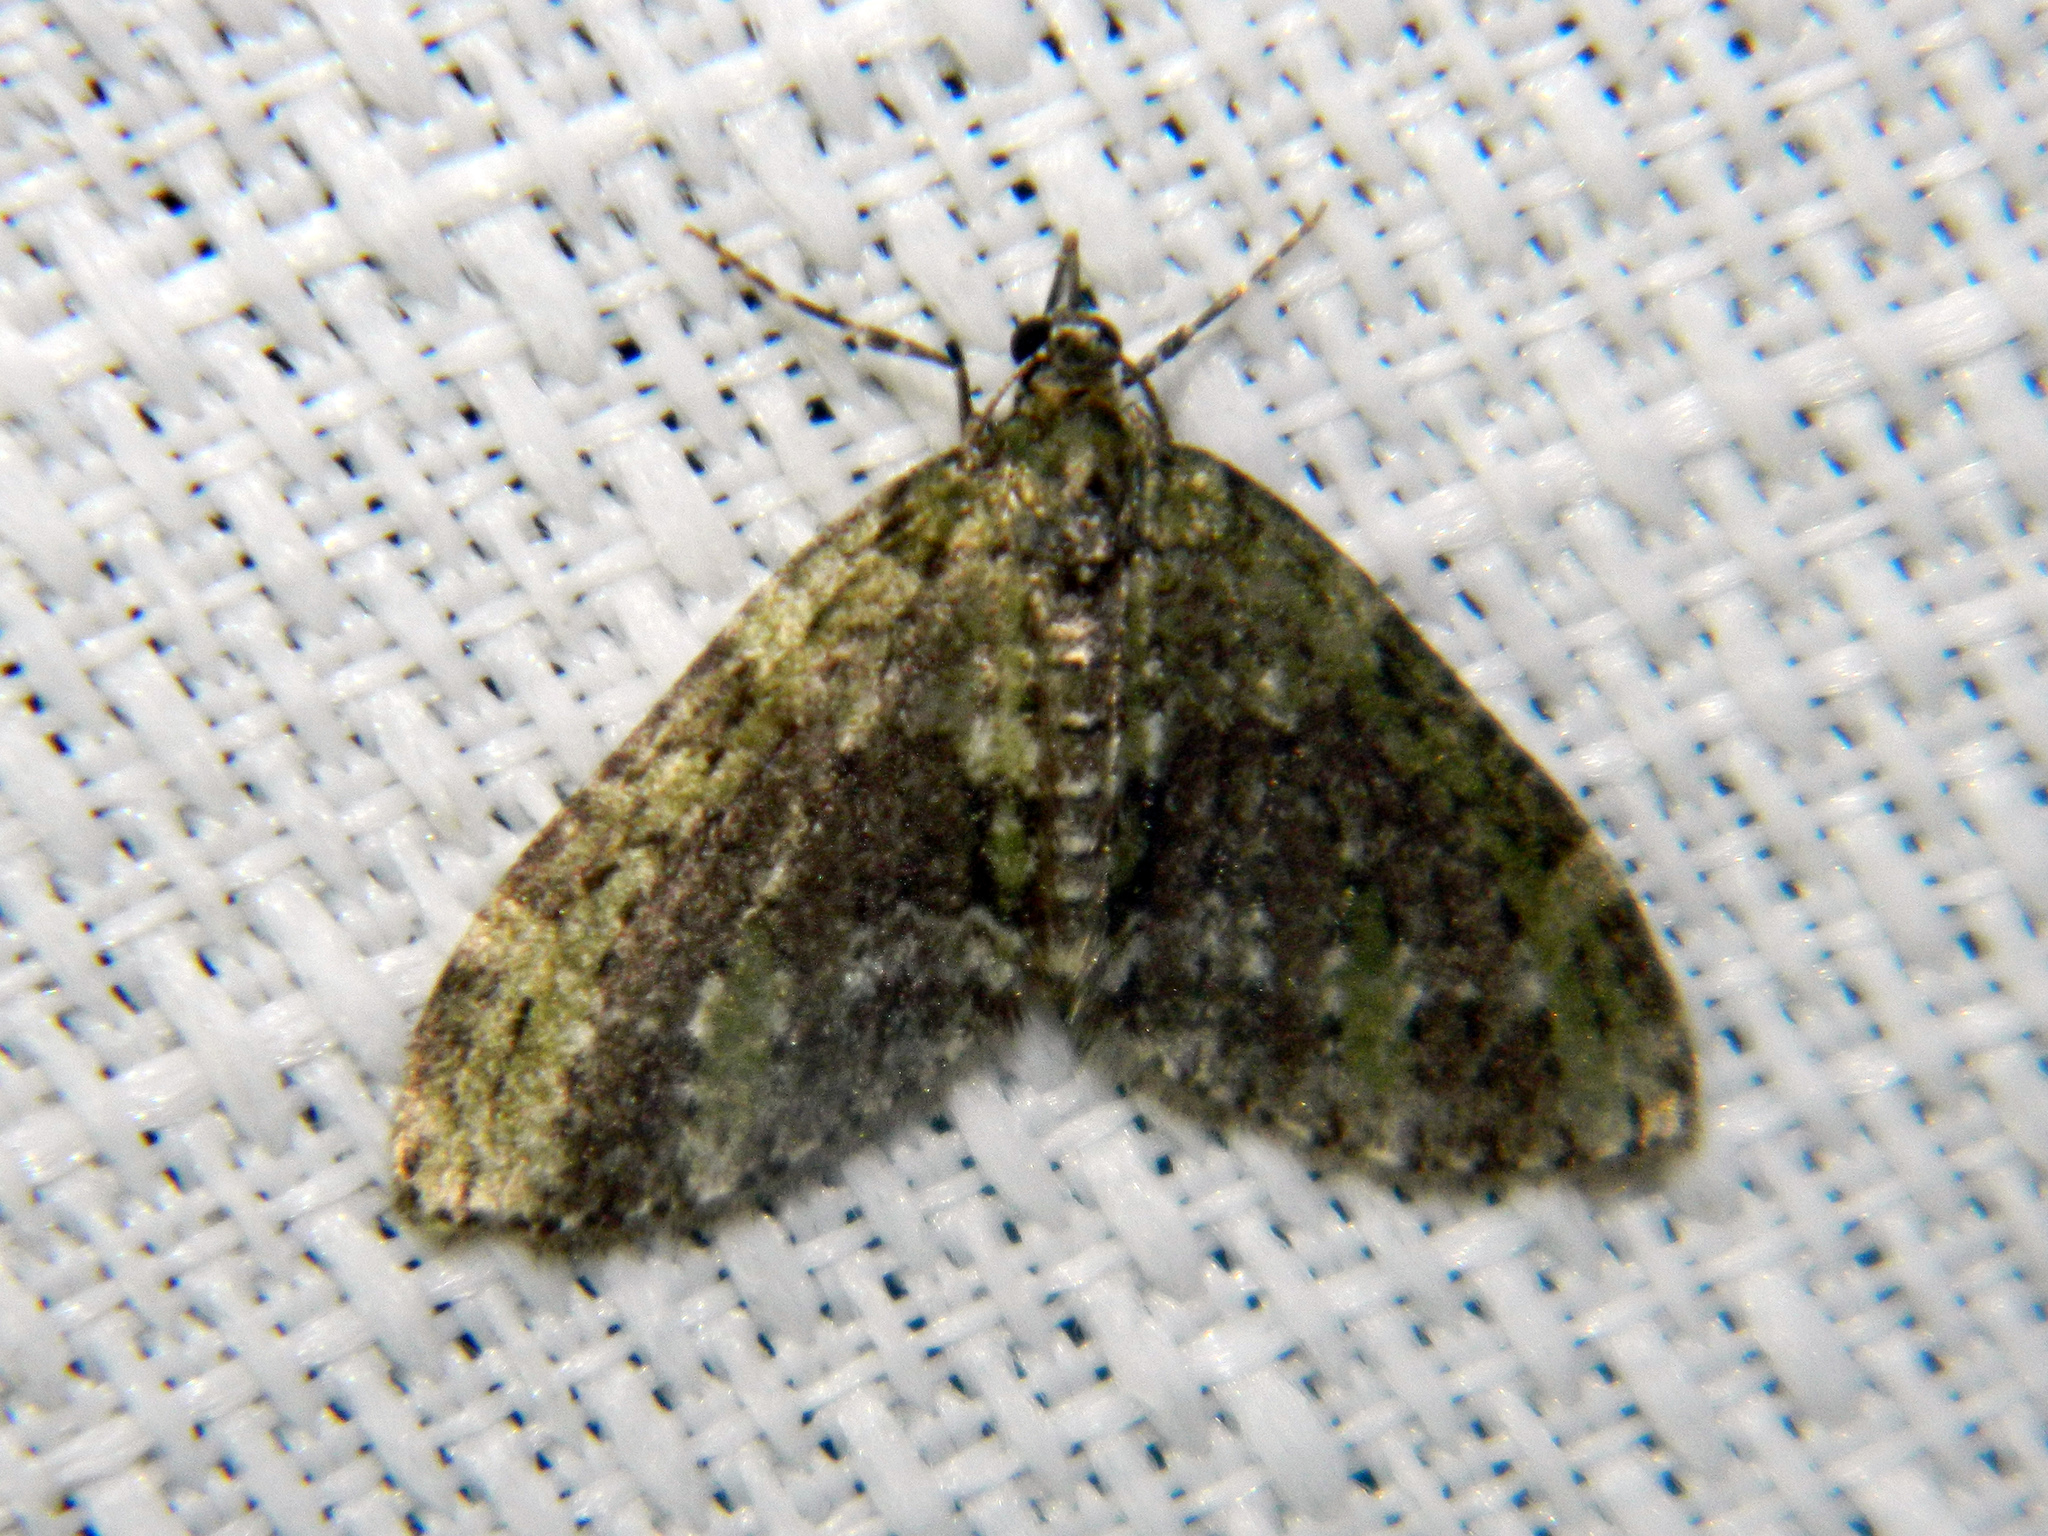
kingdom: Animalia
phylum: Arthropoda
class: Insecta
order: Lepidoptera
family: Geometridae
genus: Acasis
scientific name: Acasis viridata
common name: Olive-and-black carpet moth
